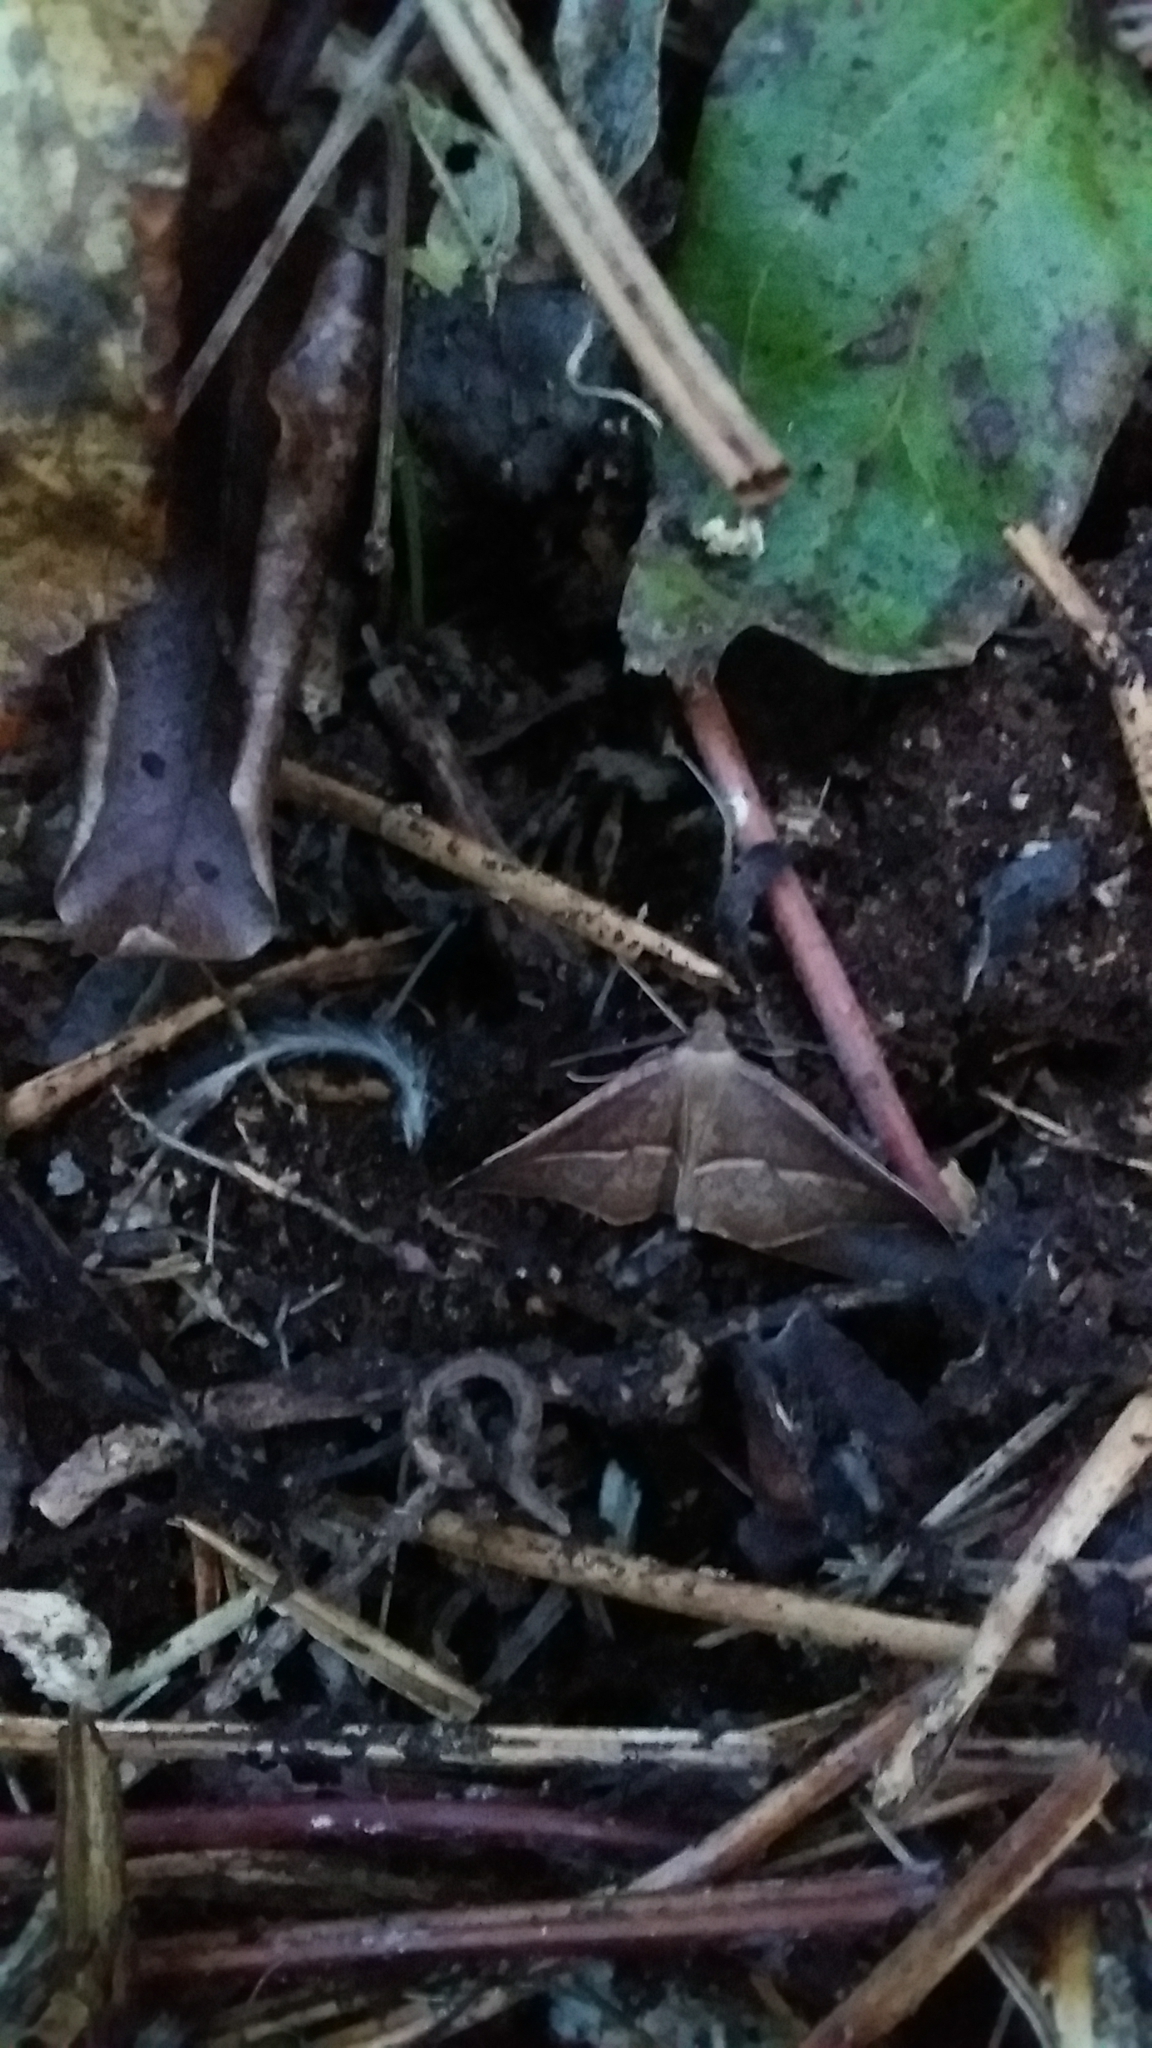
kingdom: Animalia
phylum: Arthropoda
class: Insecta
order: Lepidoptera
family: Geometridae
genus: Sarisa
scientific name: Sarisa muriferata
